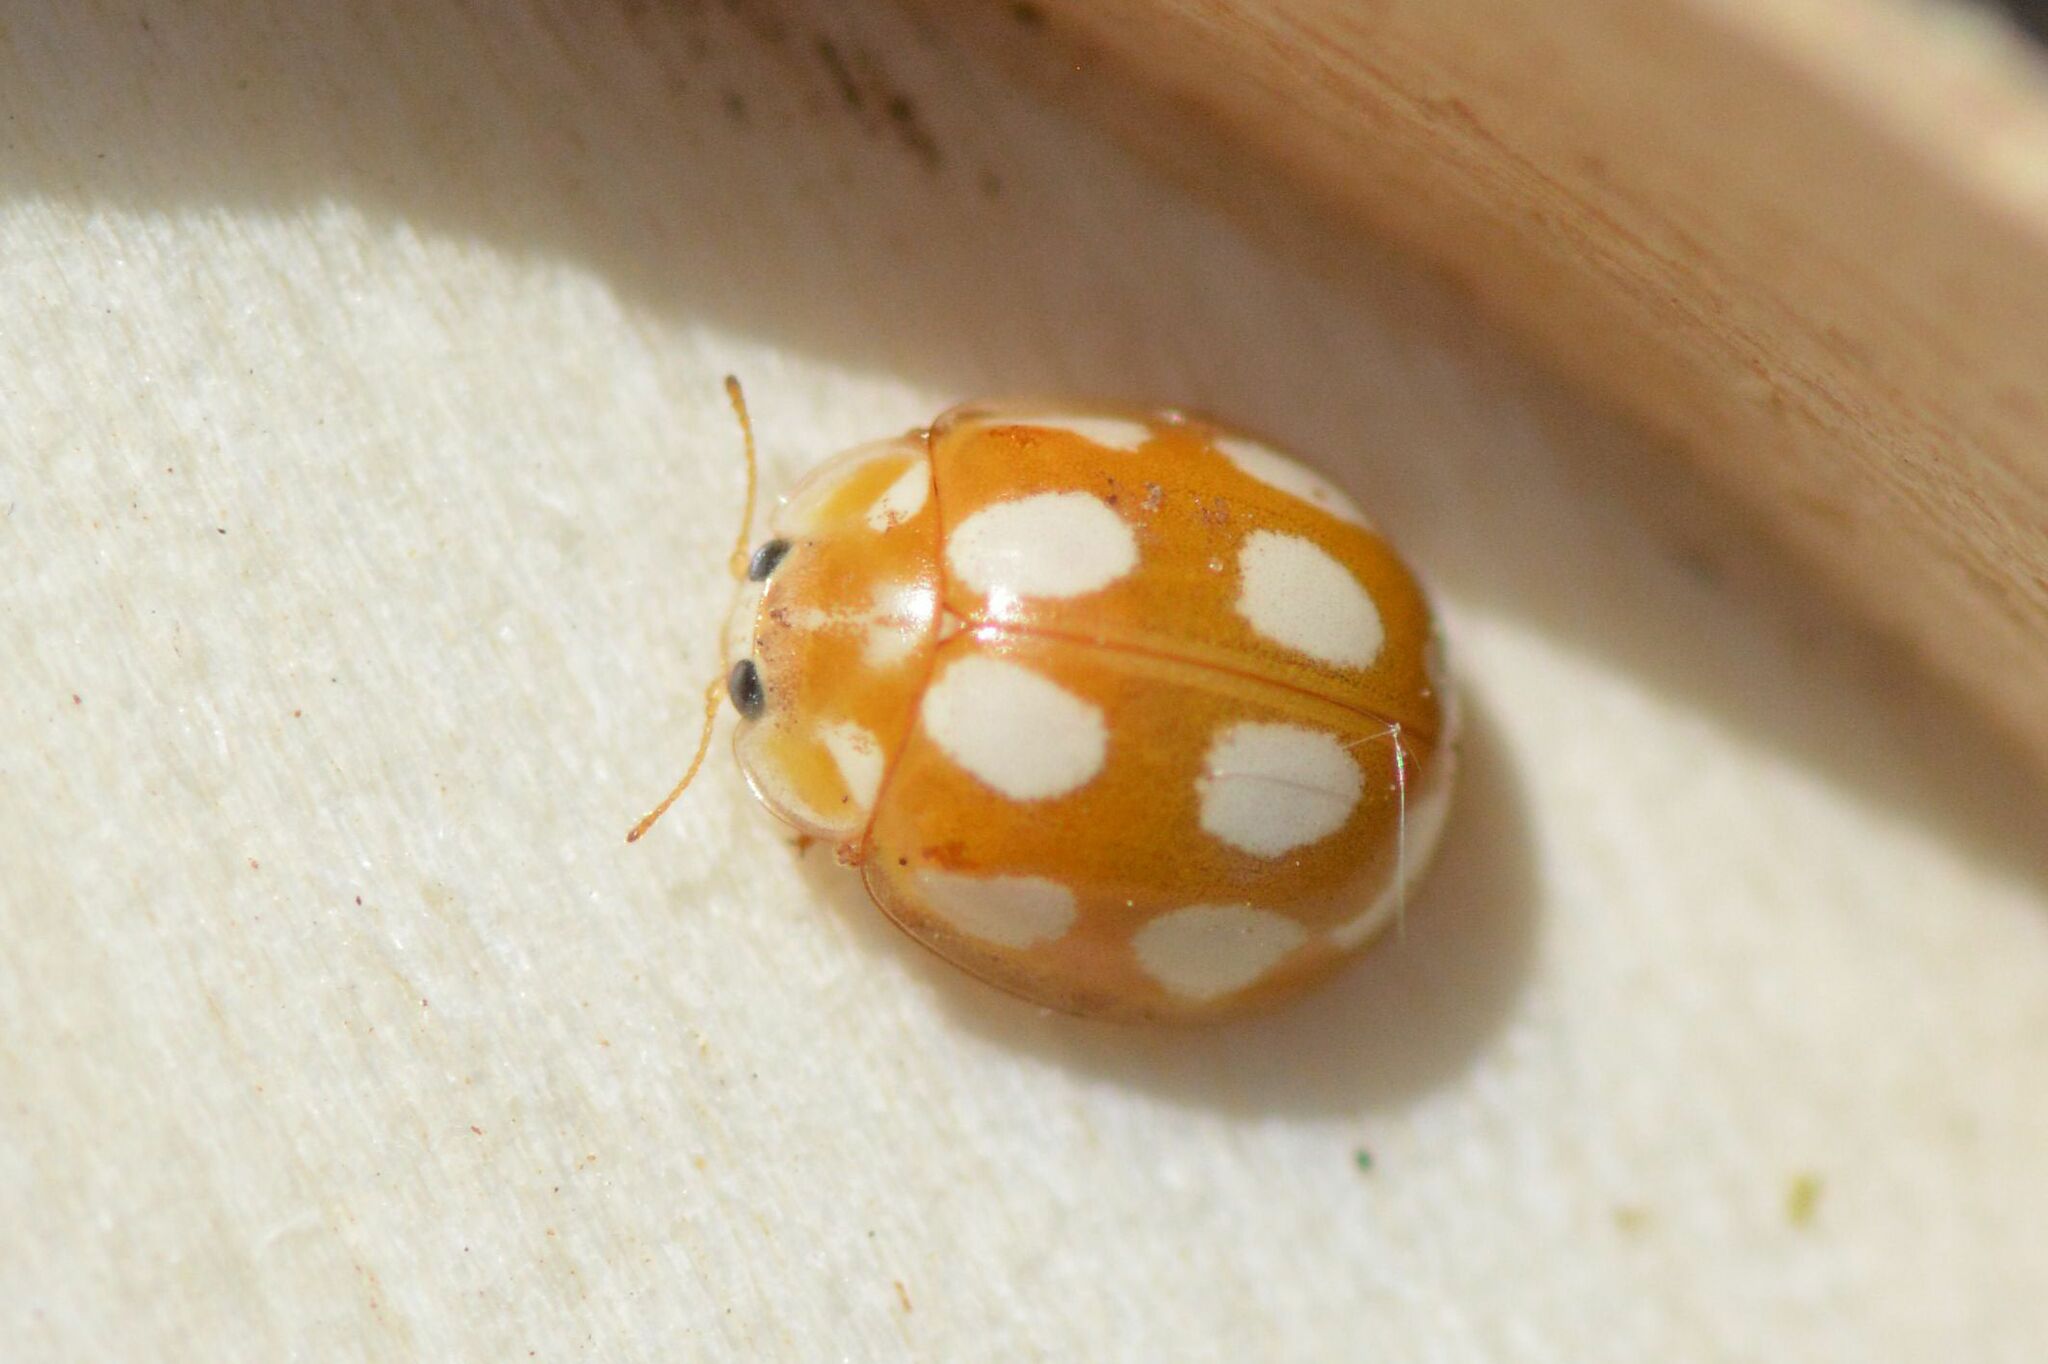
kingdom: Animalia
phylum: Arthropoda
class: Insecta
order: Coleoptera
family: Coccinellidae
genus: Calvia
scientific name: Calvia decemguttata
